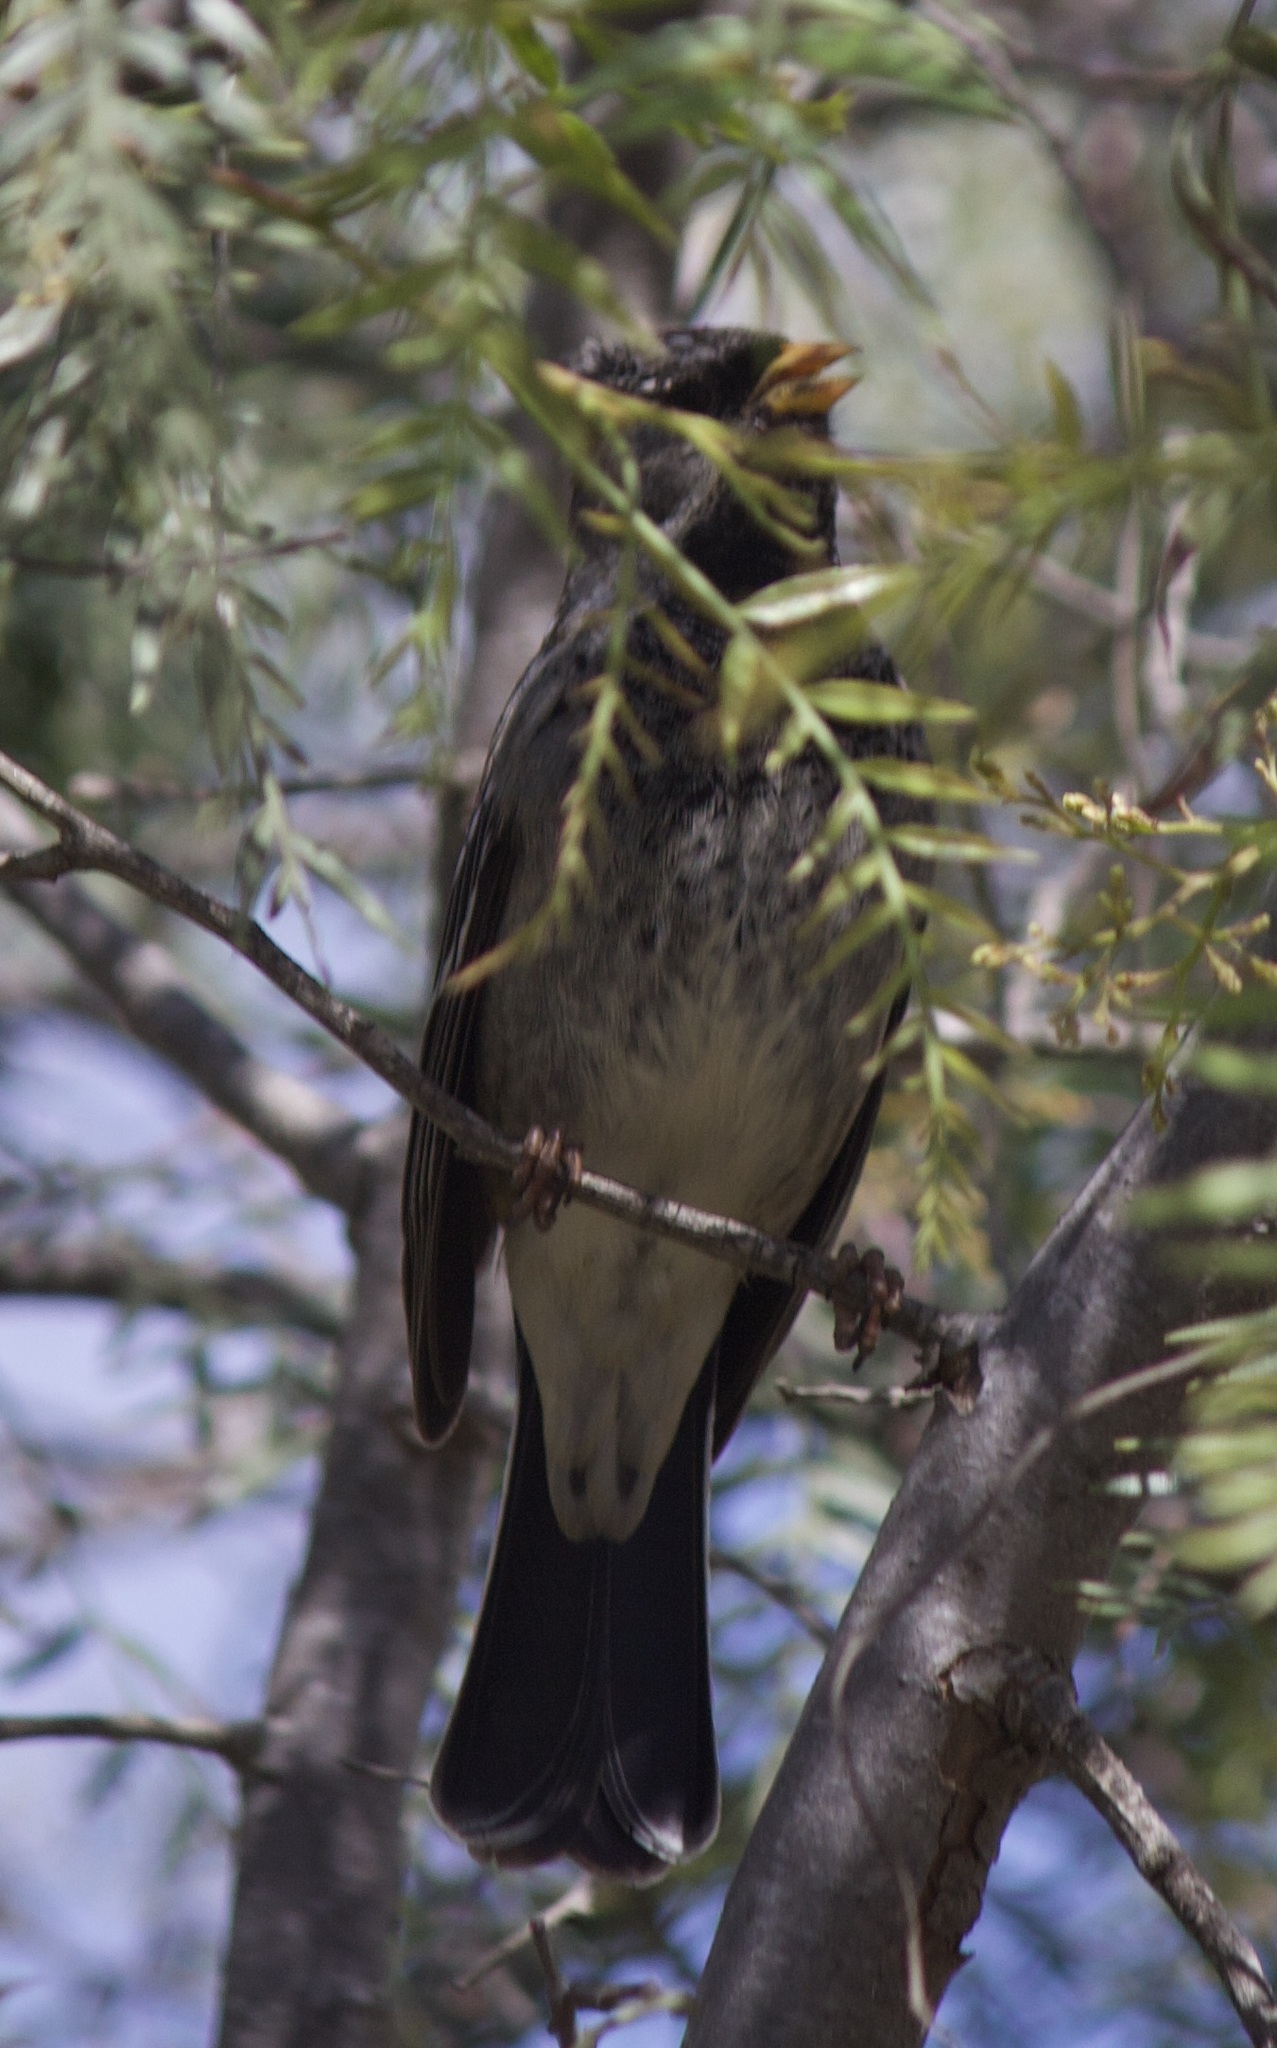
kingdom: Animalia
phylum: Chordata
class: Aves
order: Passeriformes
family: Thraupidae
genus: Rhopospina
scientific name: Rhopospina fruticeti
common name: Mourning sierra finch
